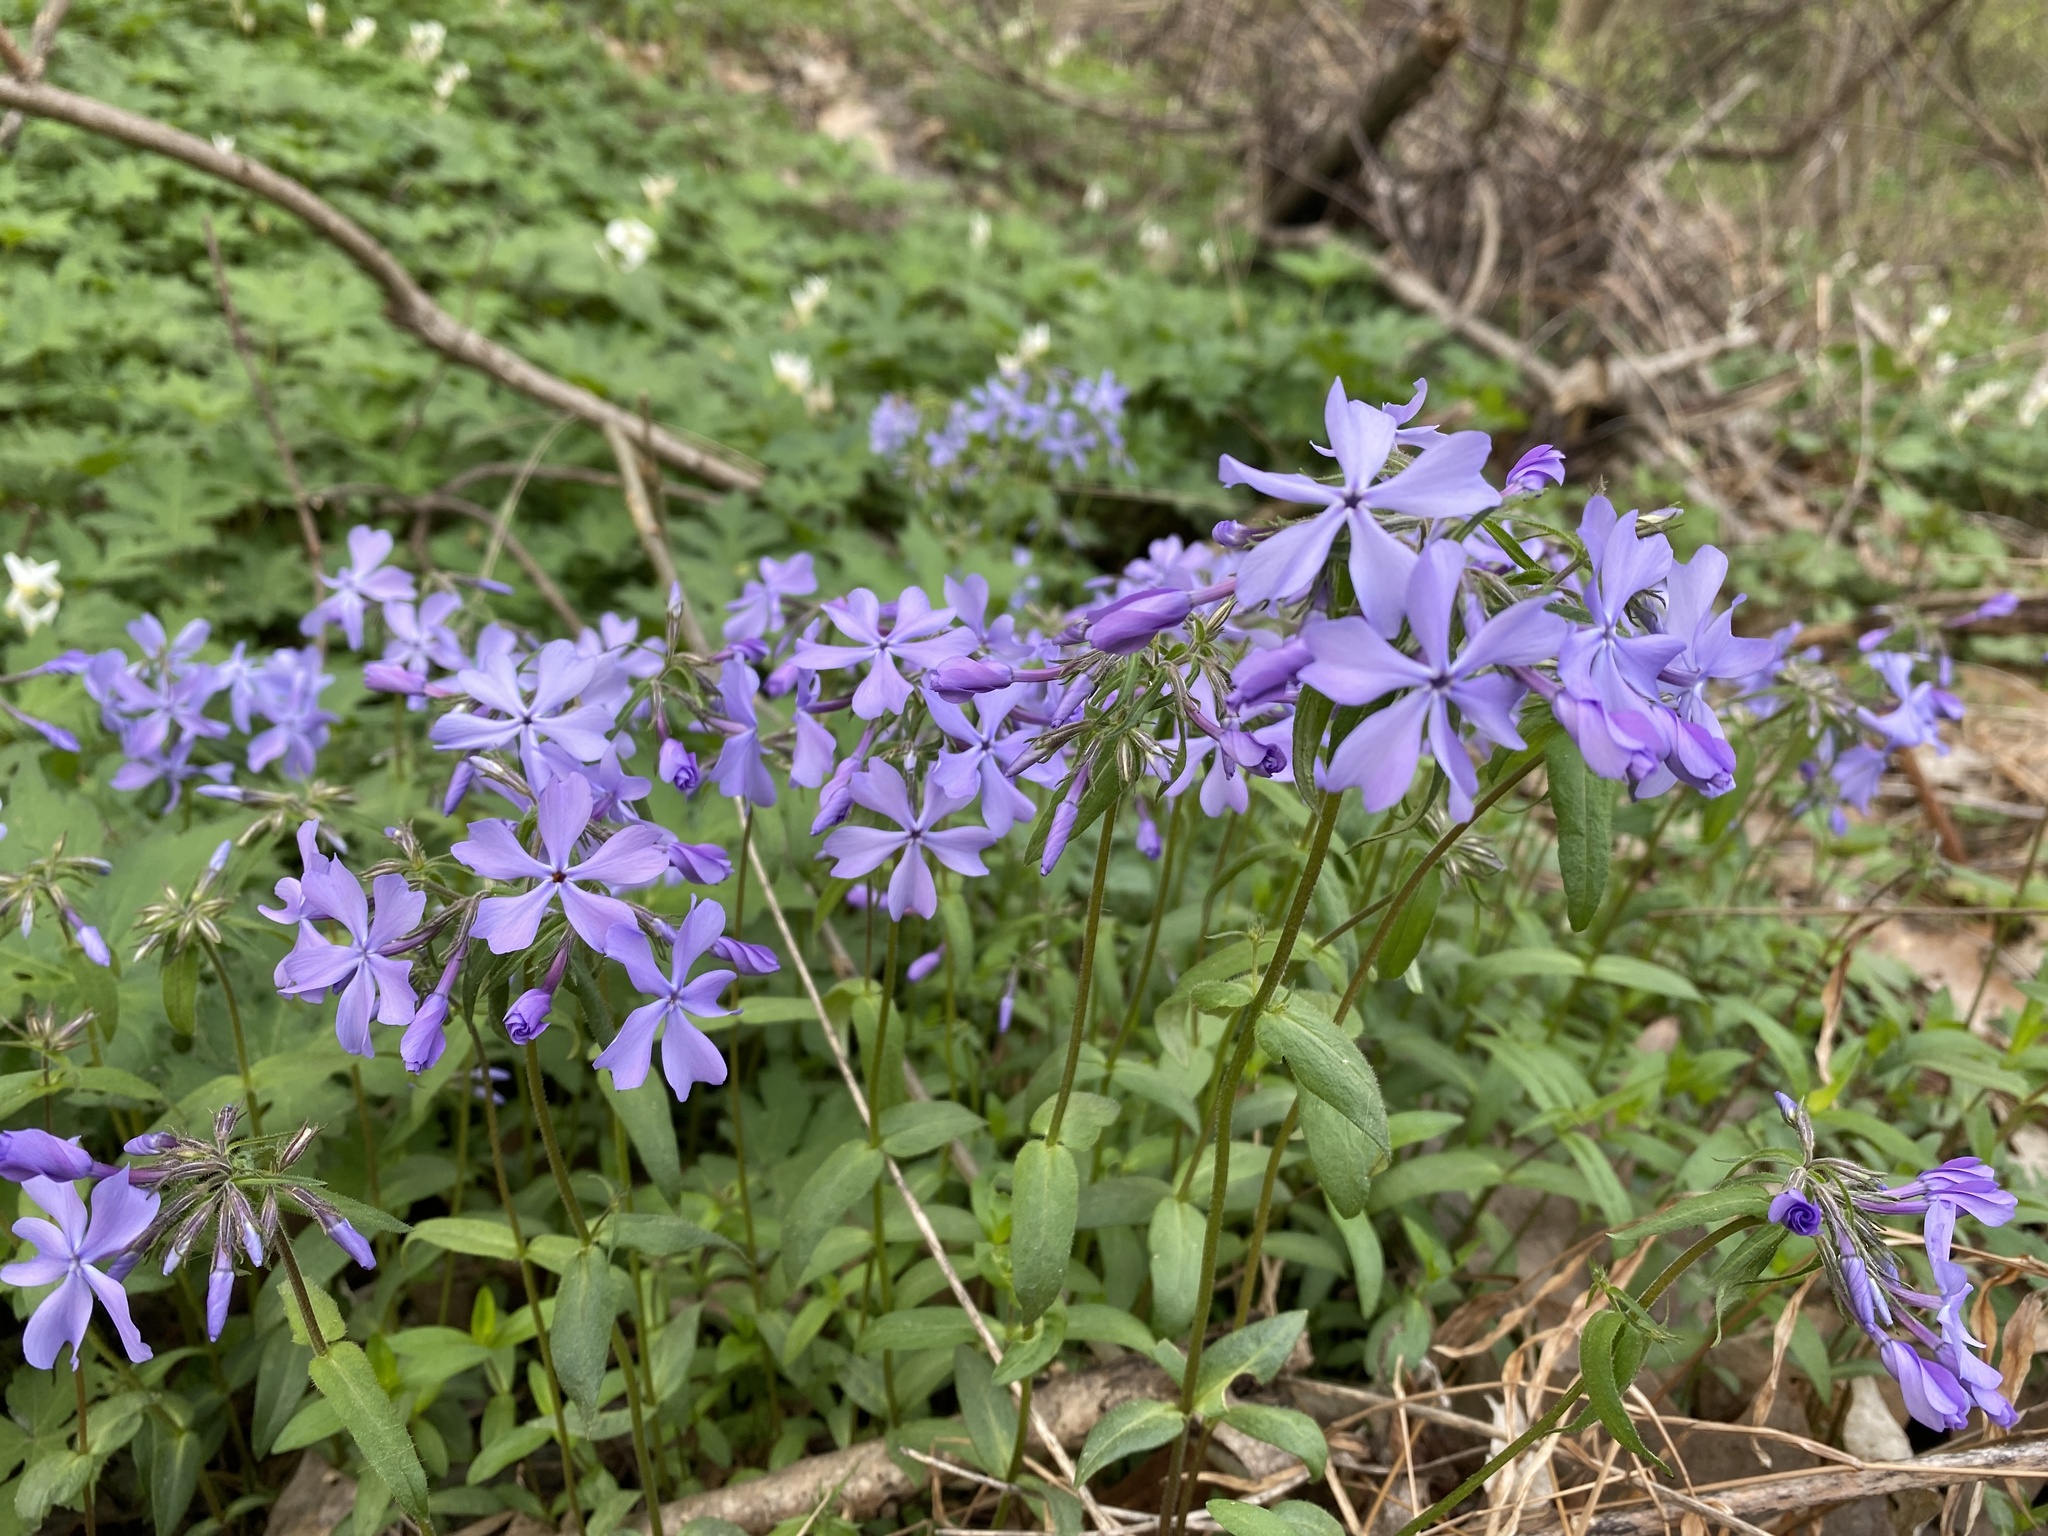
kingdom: Plantae
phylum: Tracheophyta
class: Magnoliopsida
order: Ericales
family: Polemoniaceae
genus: Phlox
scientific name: Phlox divaricata
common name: Blue phlox
